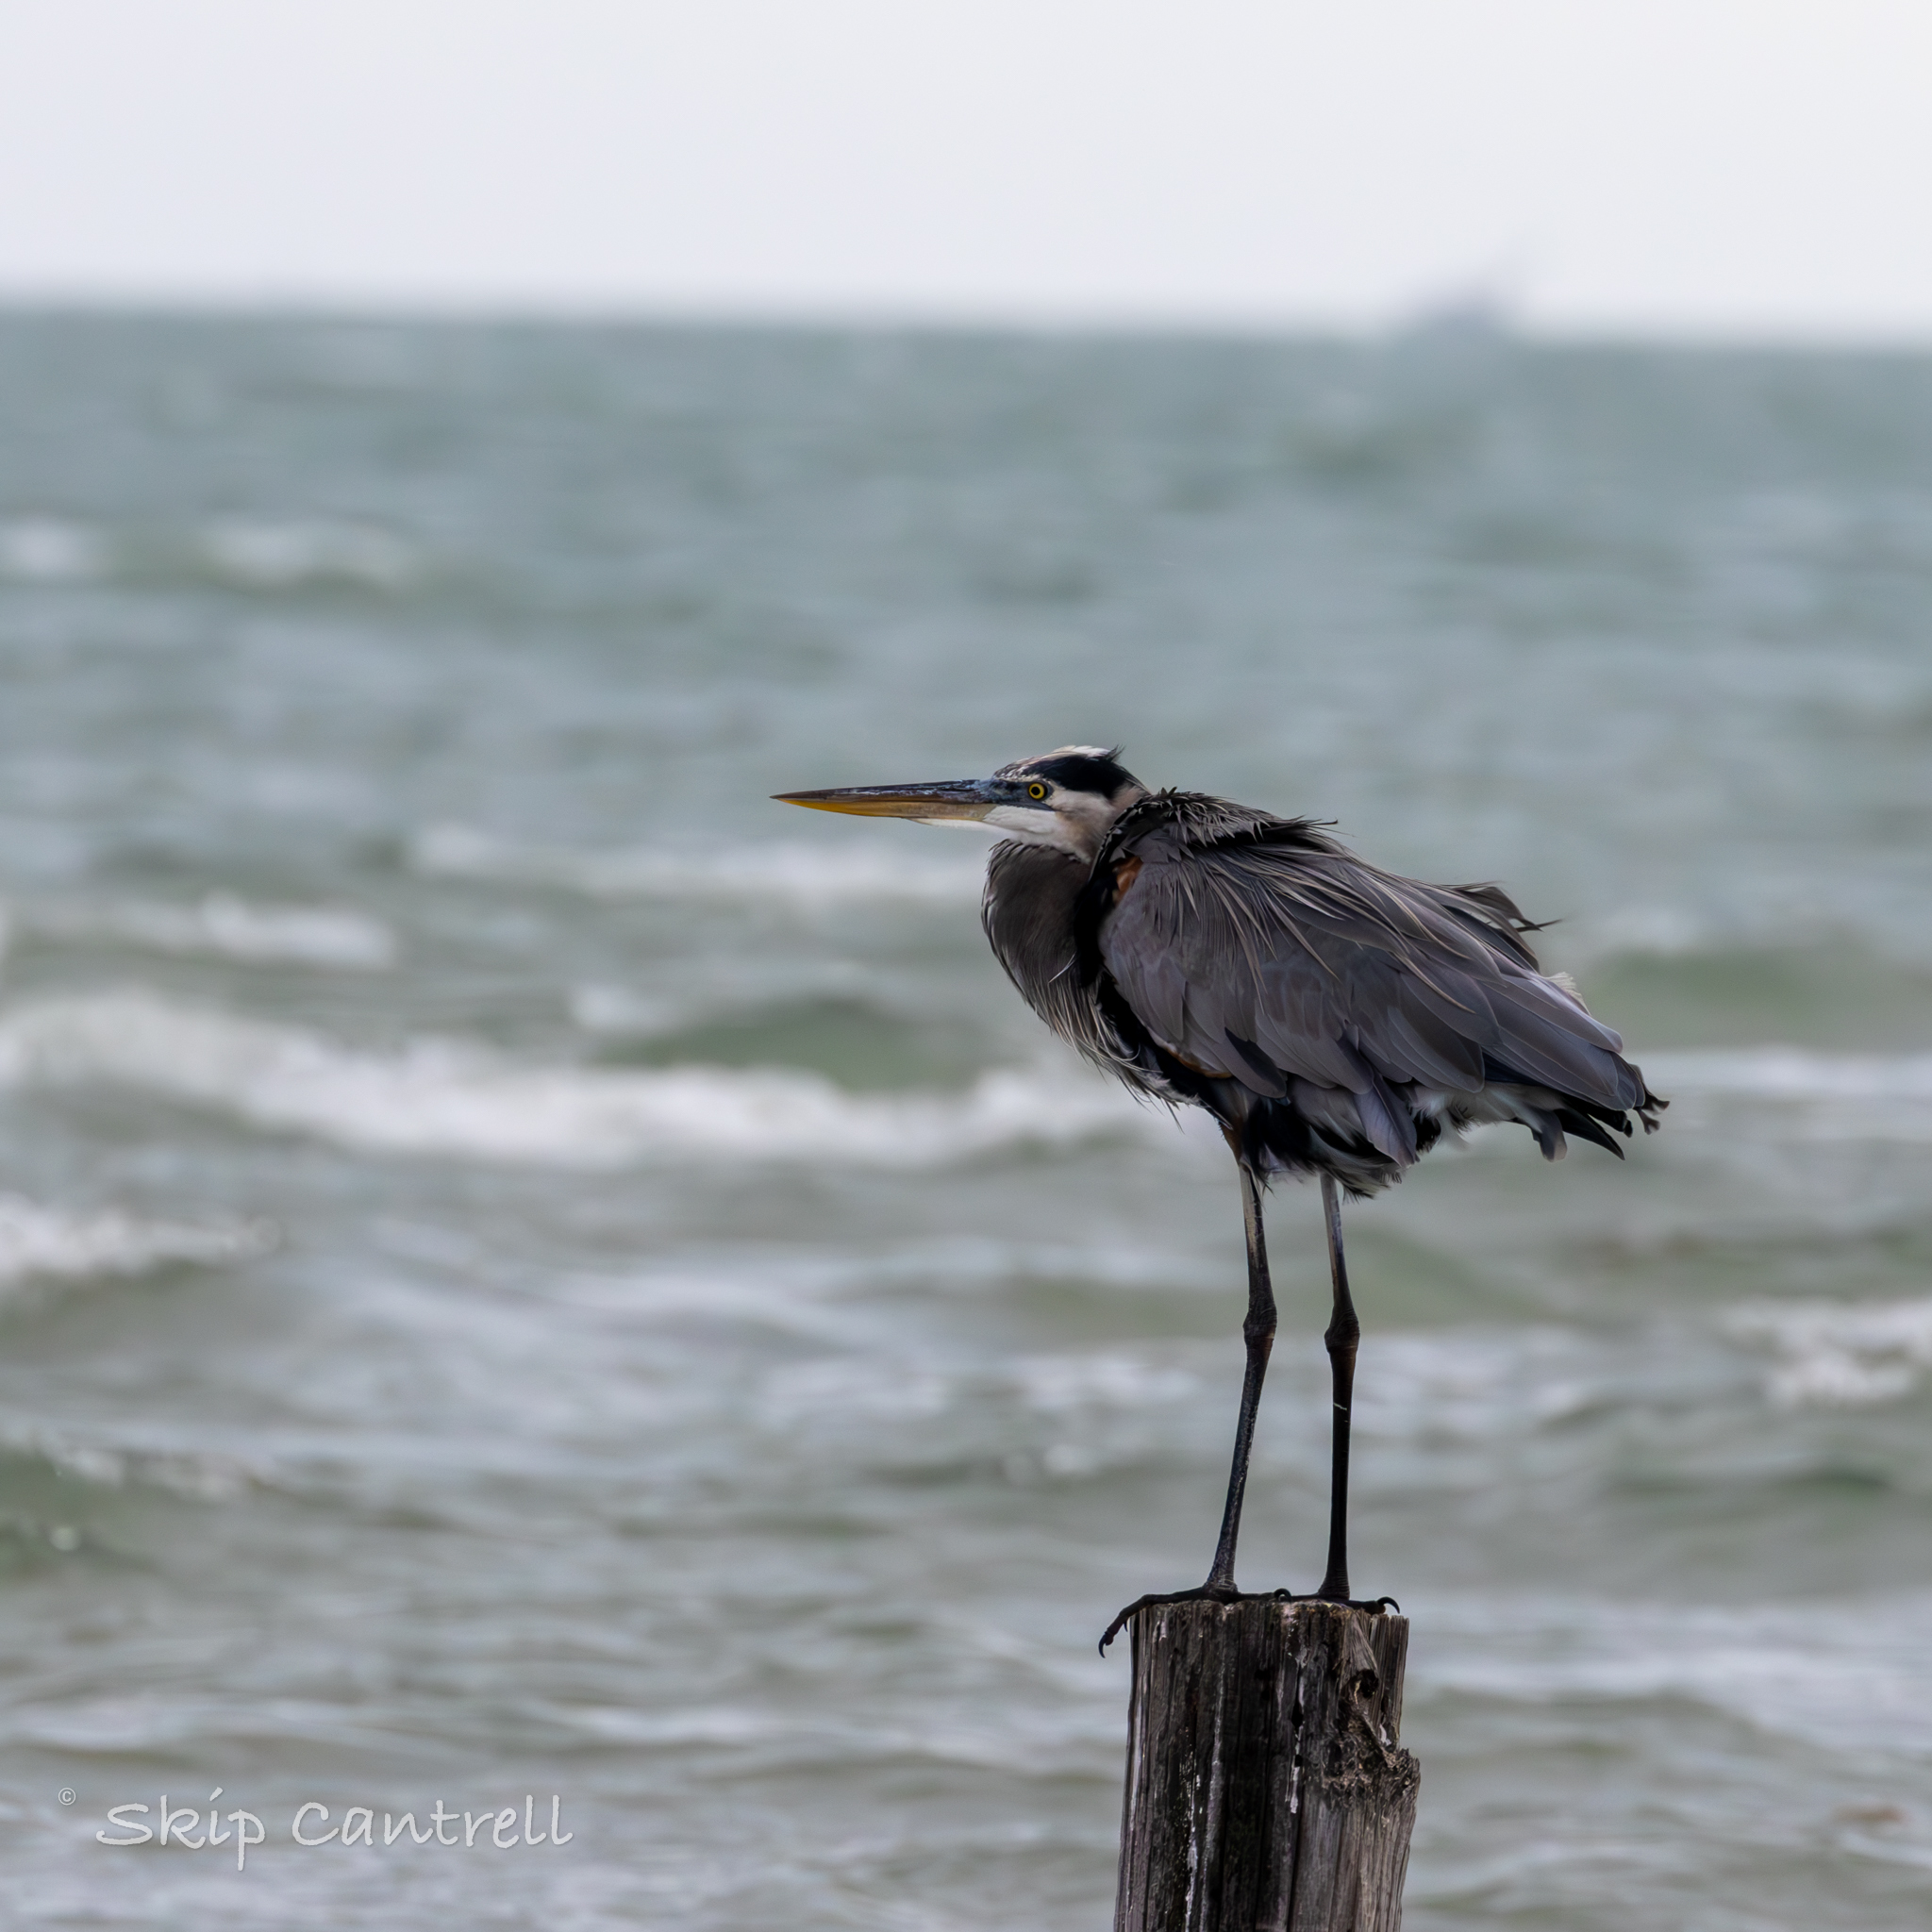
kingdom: Animalia
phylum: Chordata
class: Aves
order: Pelecaniformes
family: Ardeidae
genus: Ardea
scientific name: Ardea herodias
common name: Great blue heron
